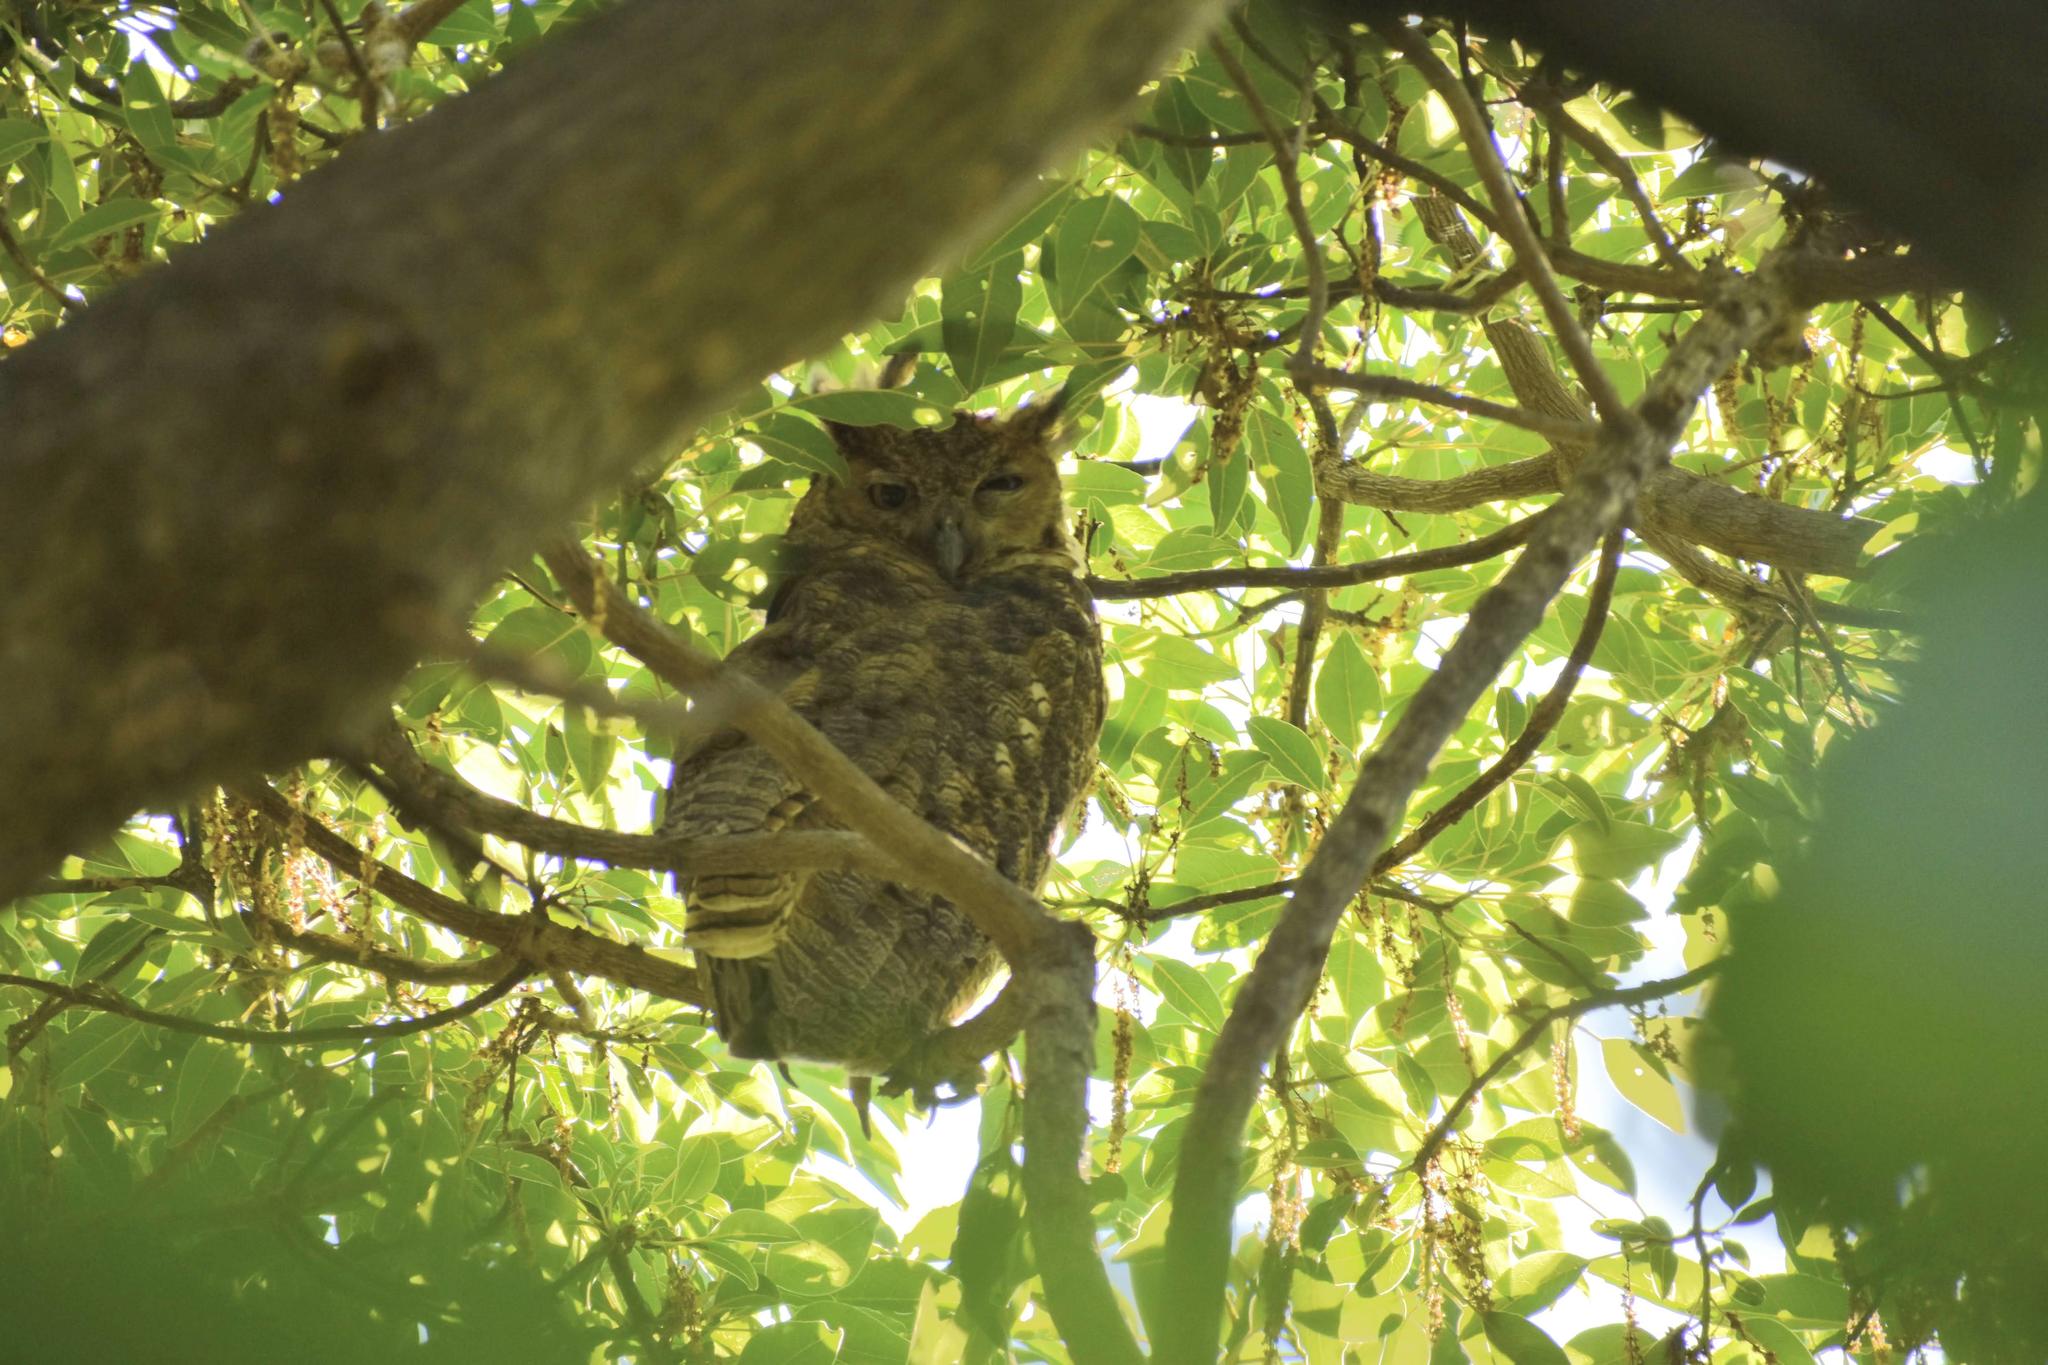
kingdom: Animalia
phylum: Chordata
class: Aves
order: Strigiformes
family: Strigidae
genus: Bubo
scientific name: Bubo virginianus
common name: Great horned owl
